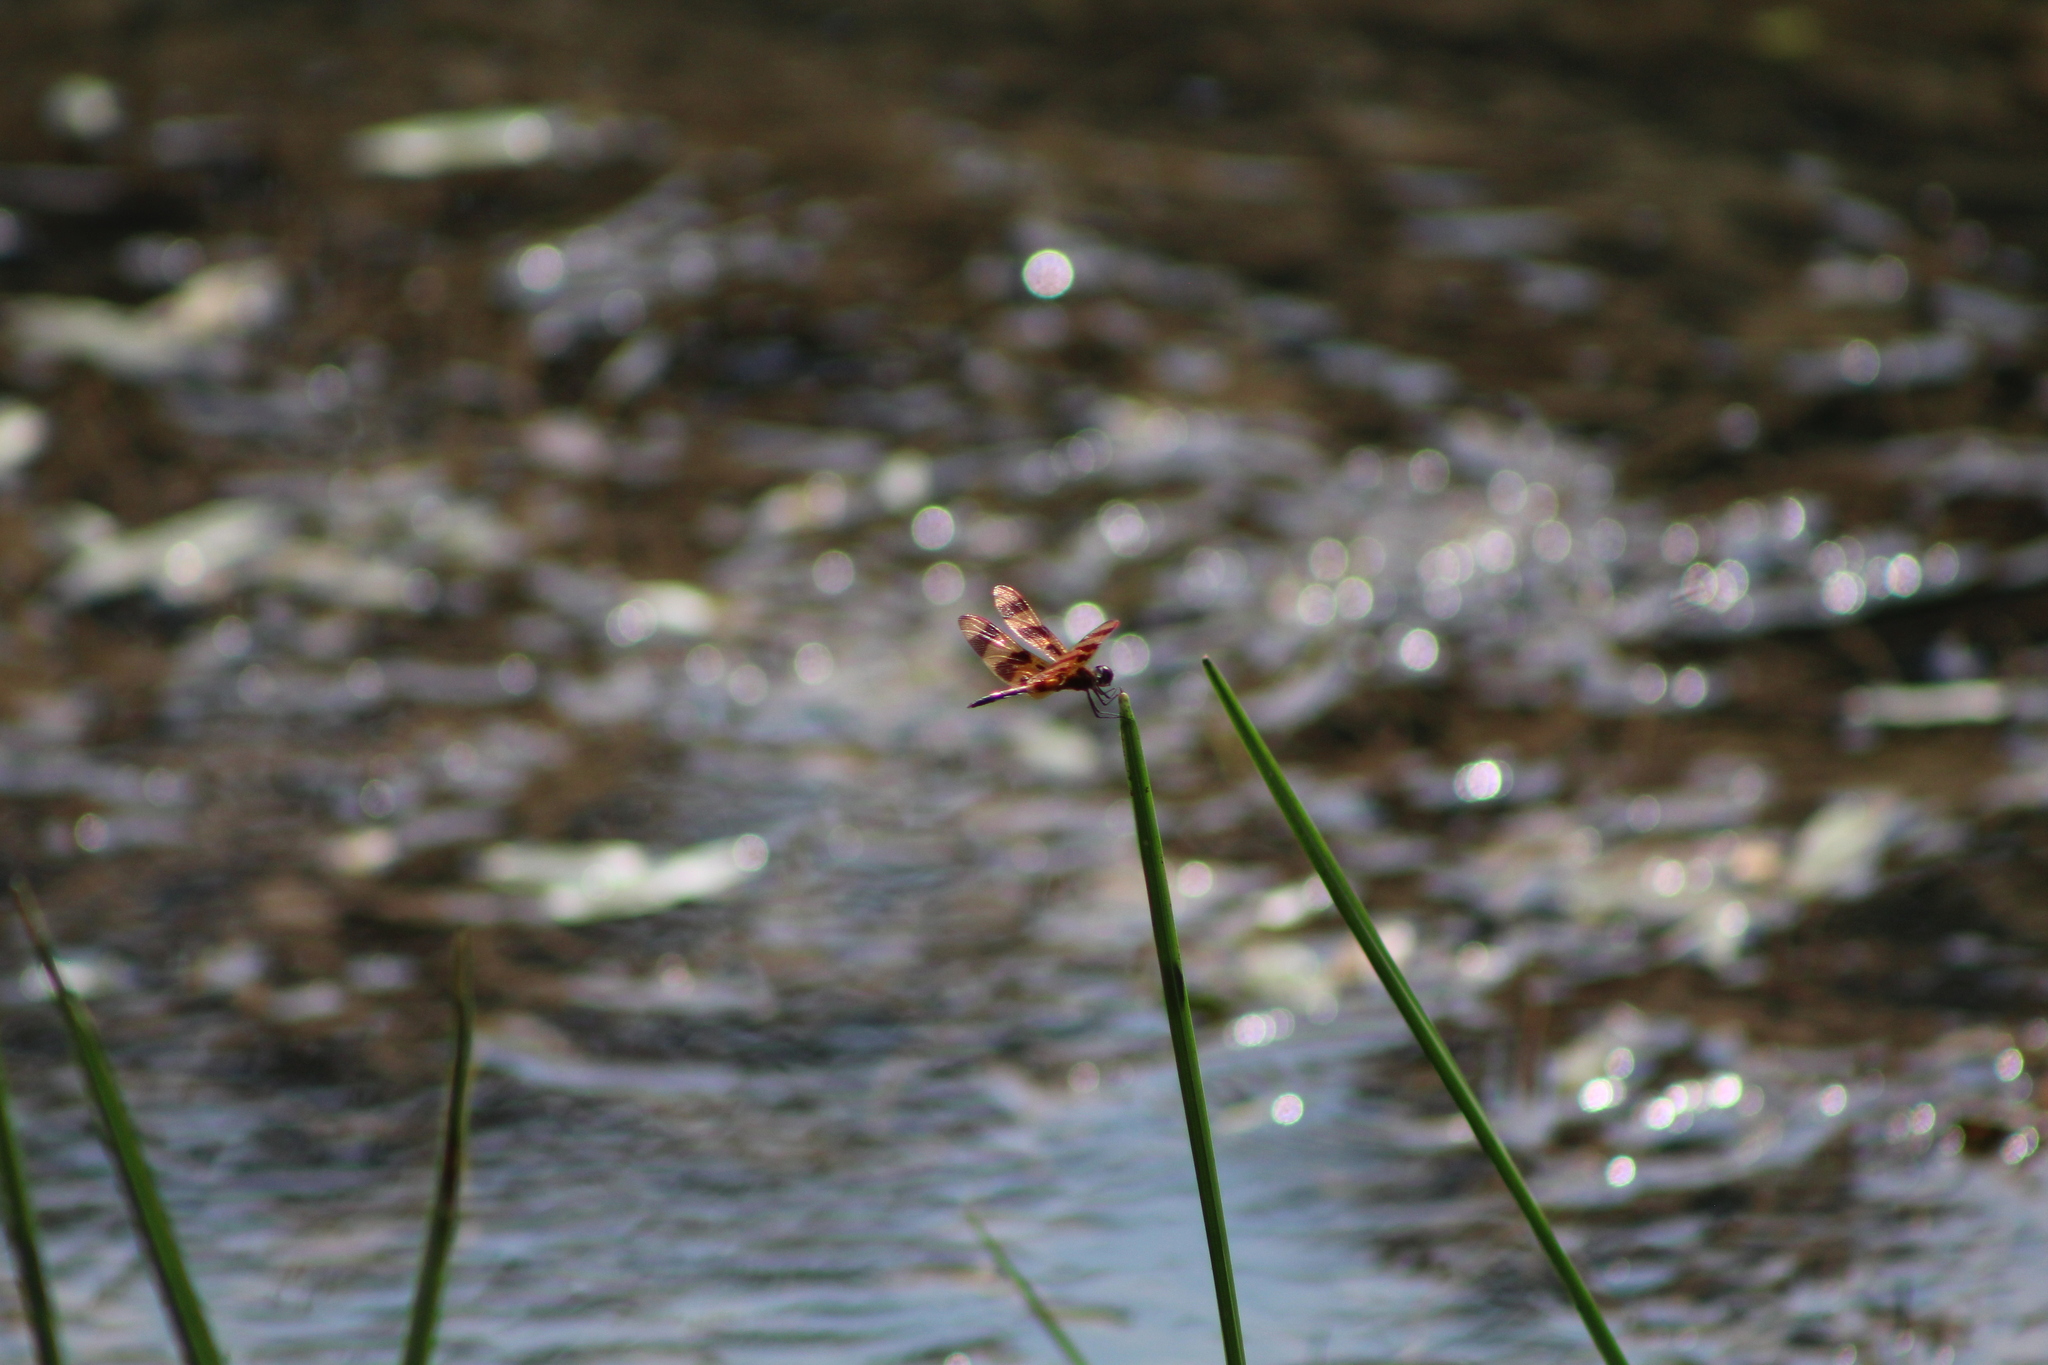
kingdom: Animalia
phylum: Arthropoda
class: Insecta
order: Odonata
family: Libellulidae
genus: Celithemis
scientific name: Celithemis eponina
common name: Halloween pennant
